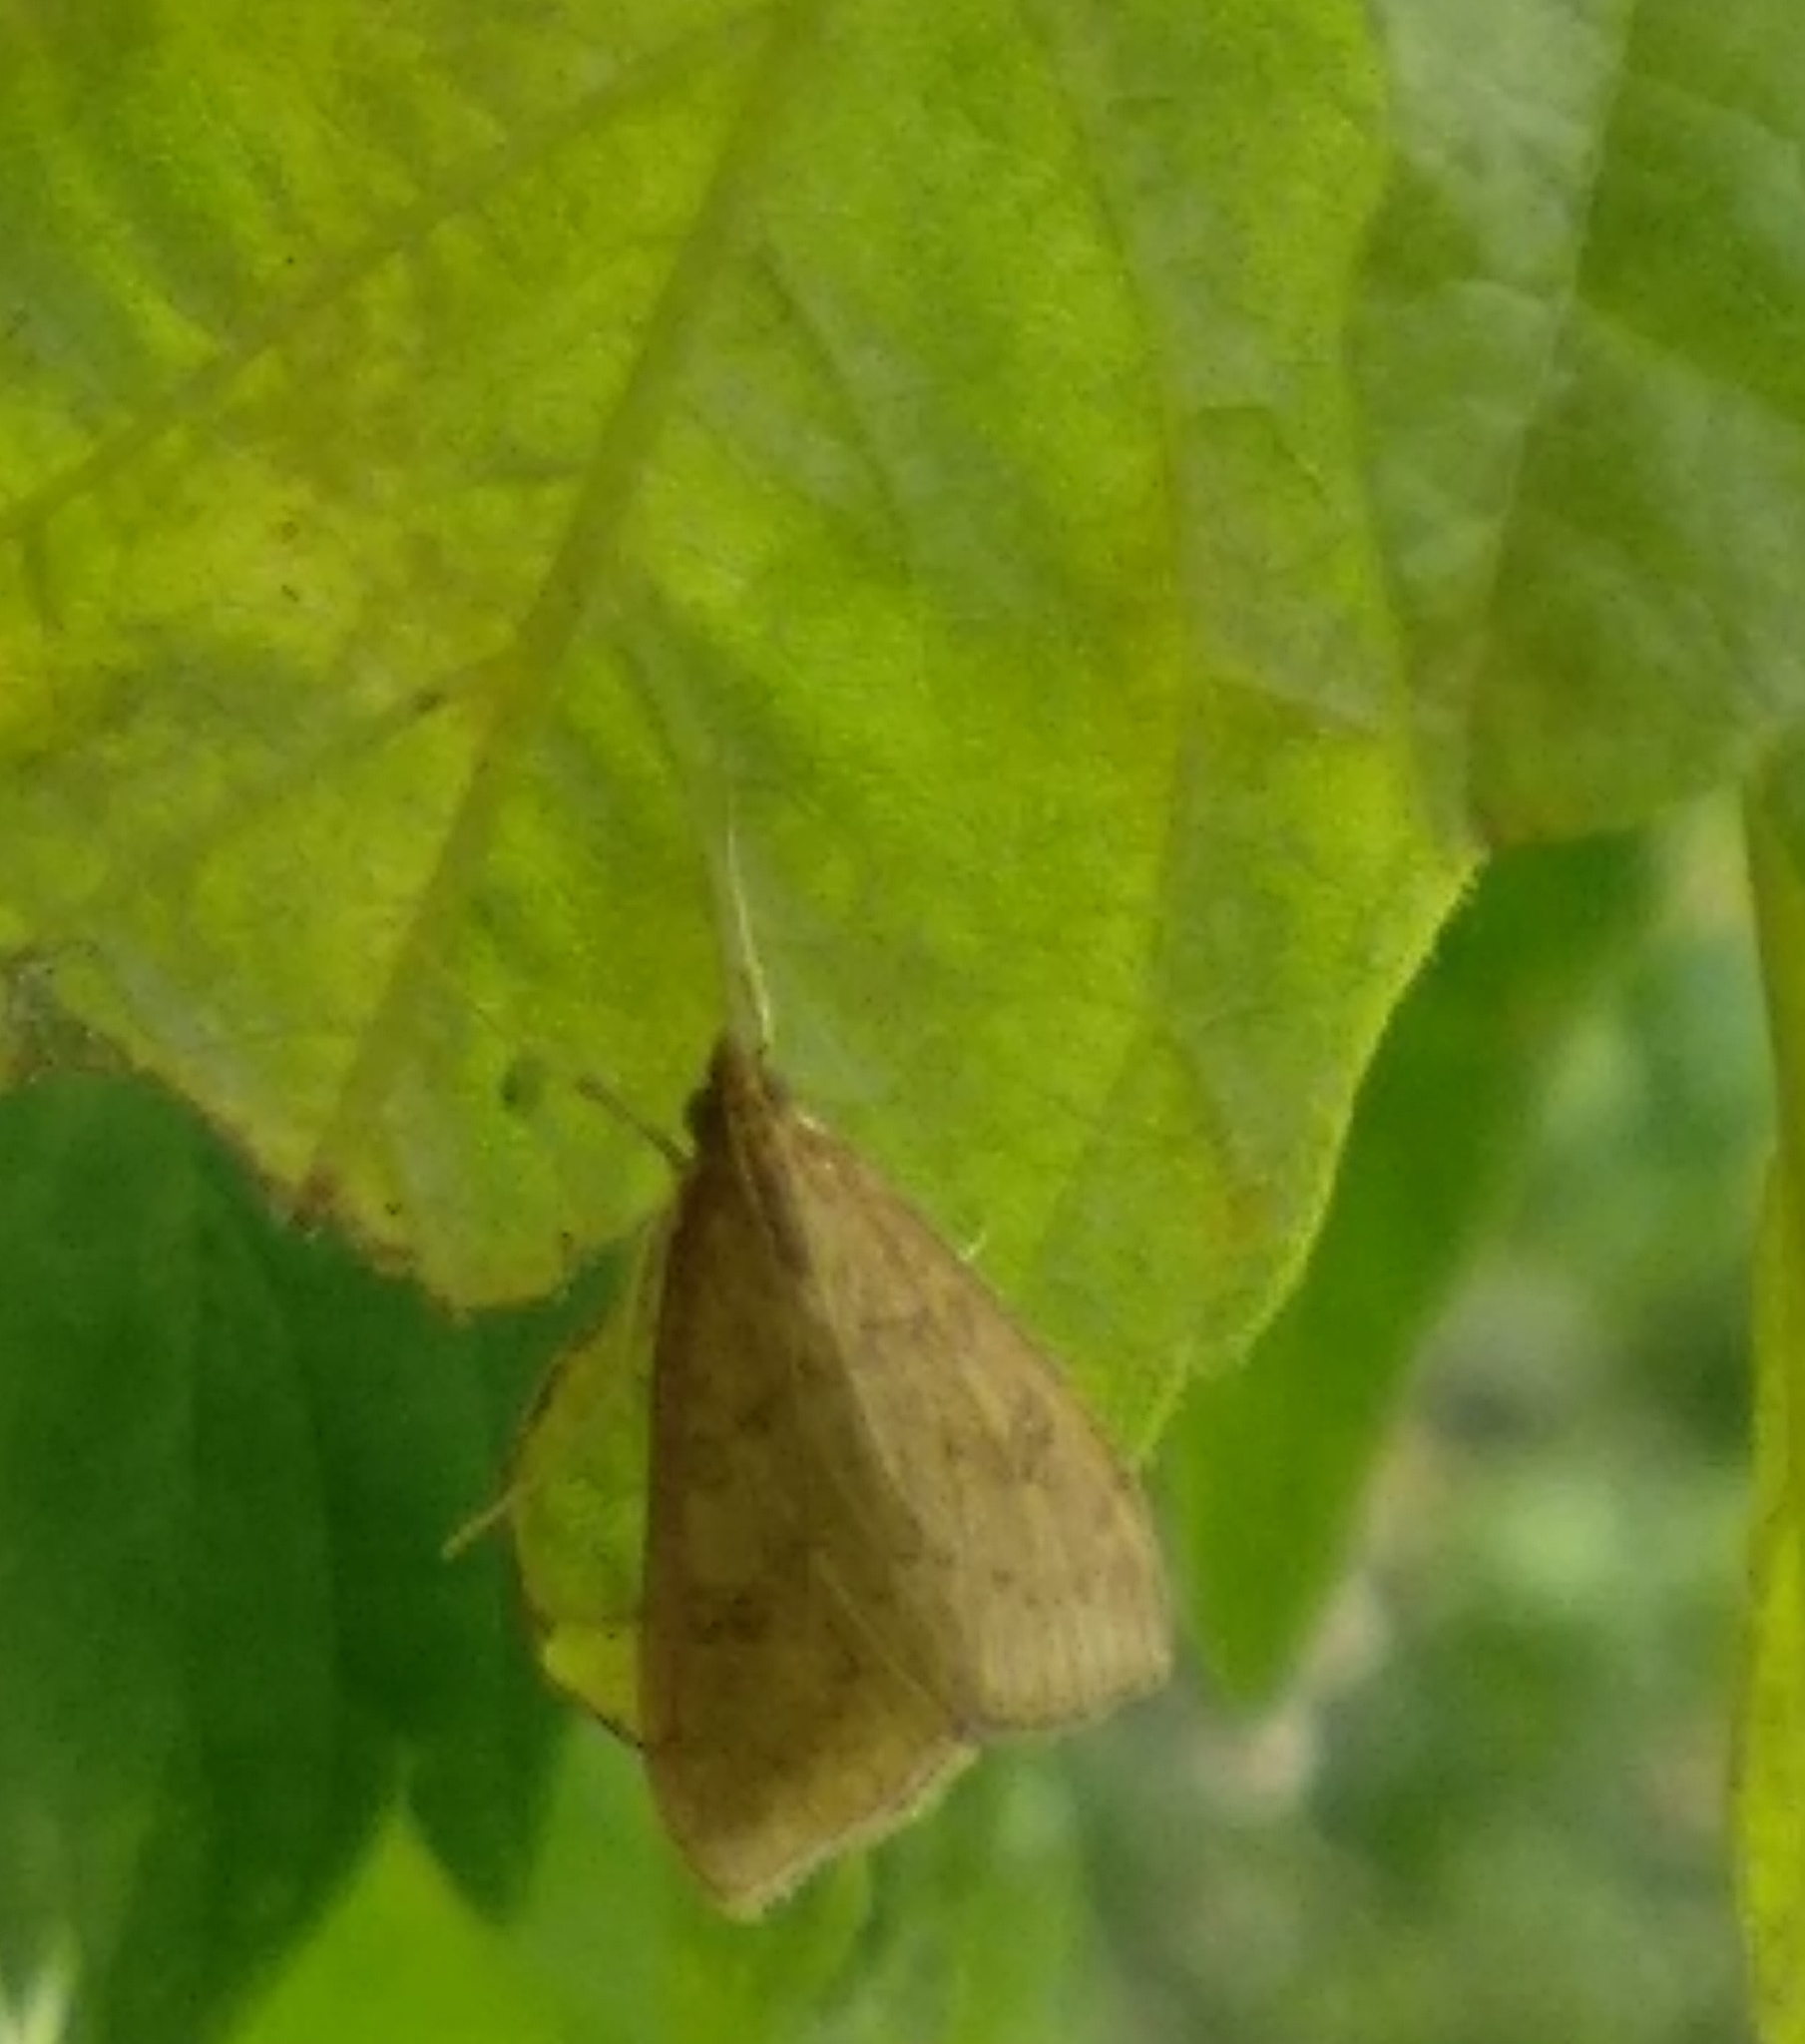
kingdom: Animalia
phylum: Arthropoda
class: Insecta
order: Lepidoptera
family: Crambidae
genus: Udea
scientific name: Udea ferrugalis
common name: Rusty dot
